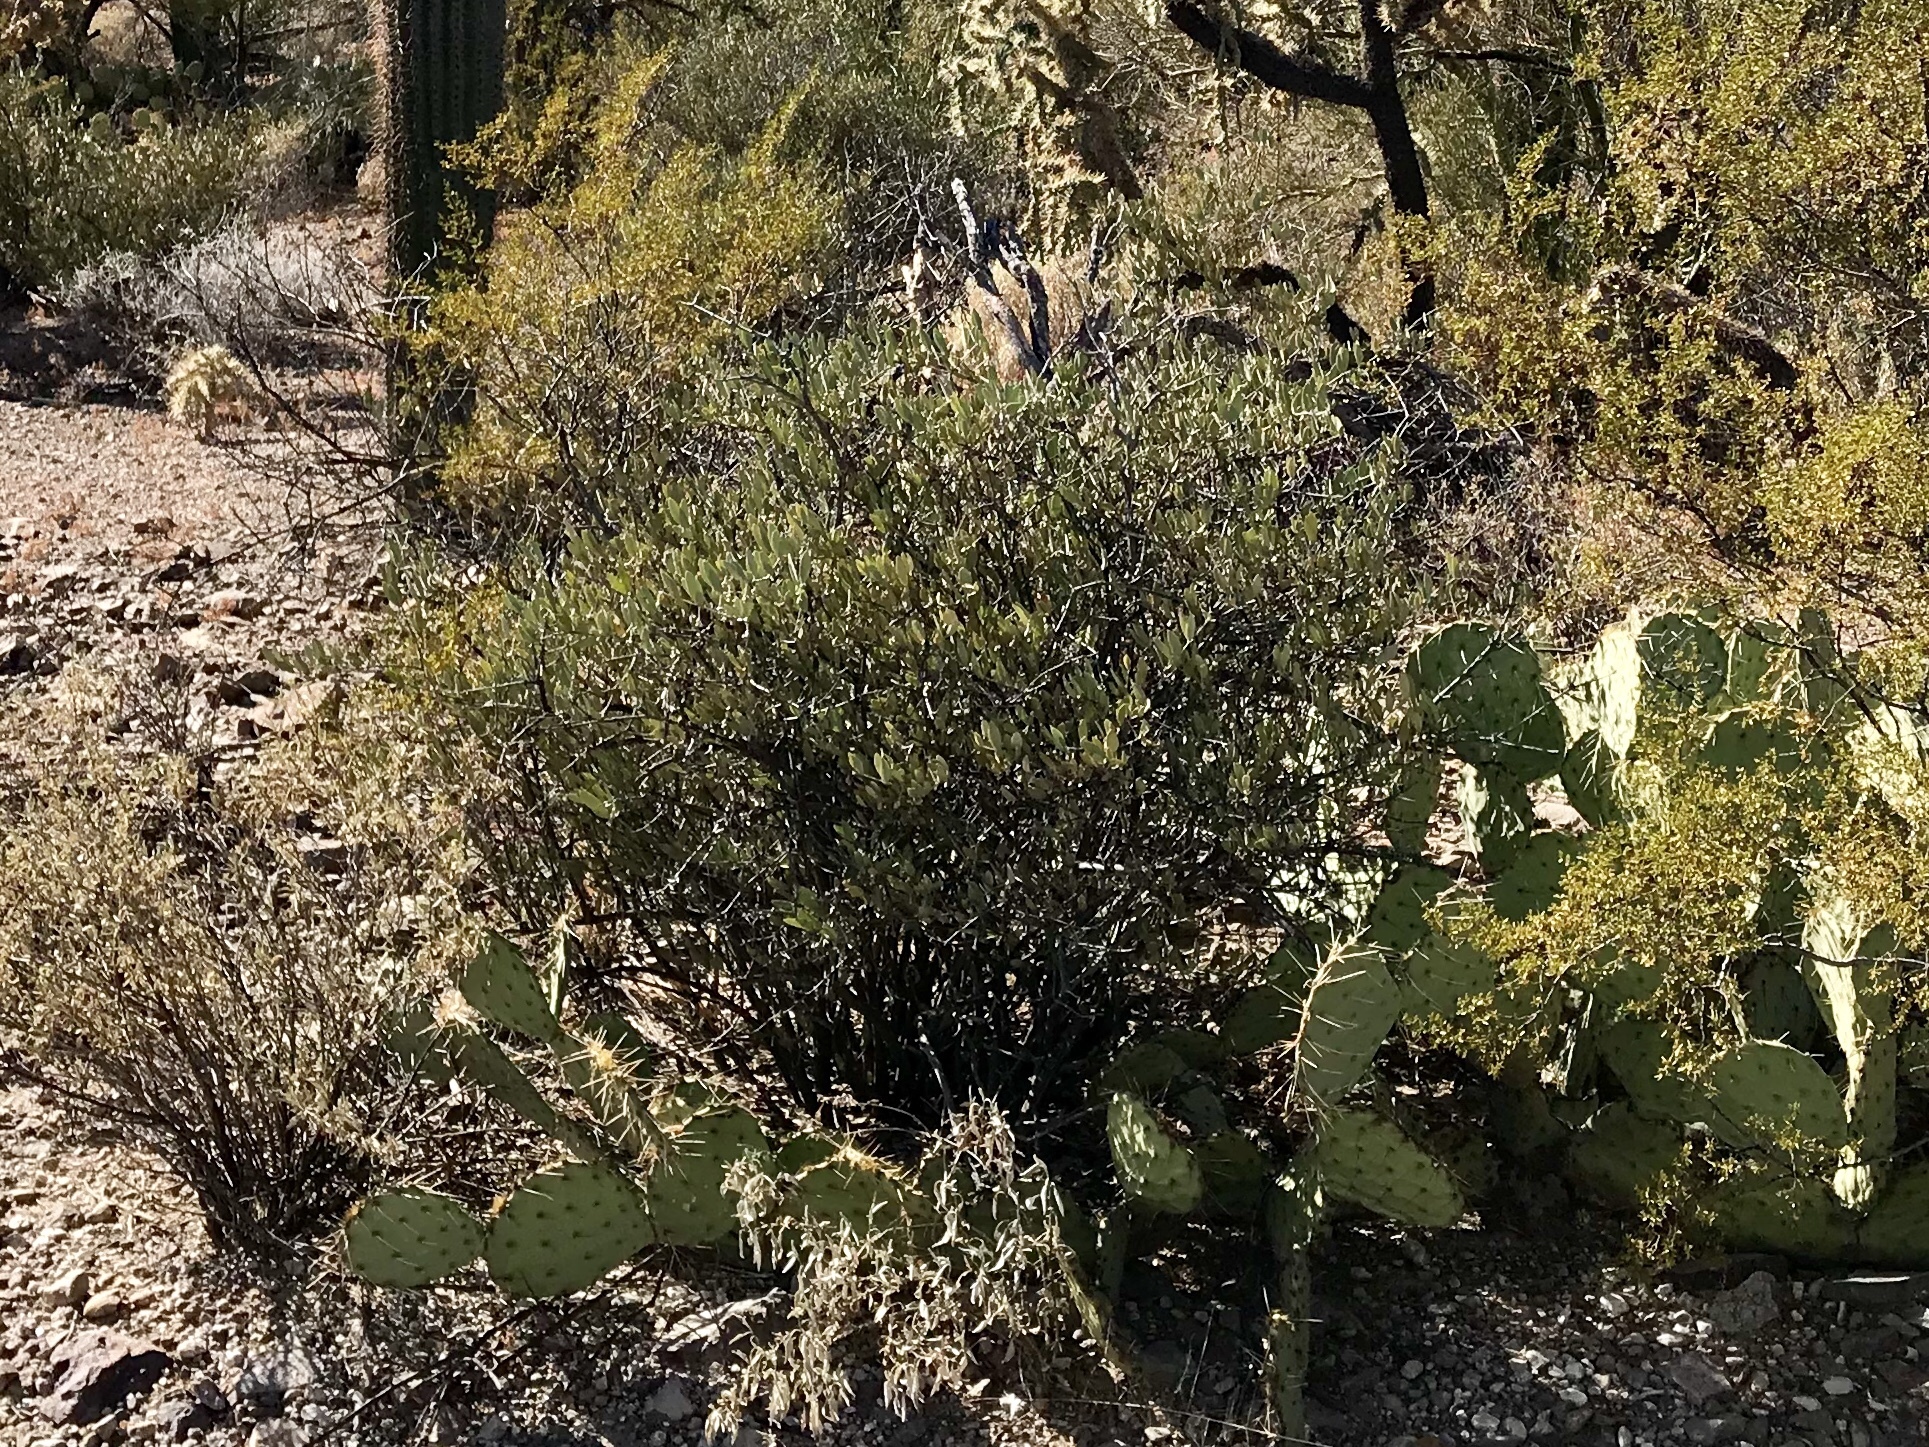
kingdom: Plantae
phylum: Tracheophyta
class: Magnoliopsida
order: Caryophyllales
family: Simmondsiaceae
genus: Simmondsia
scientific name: Simmondsia chinensis
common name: Jojoba
